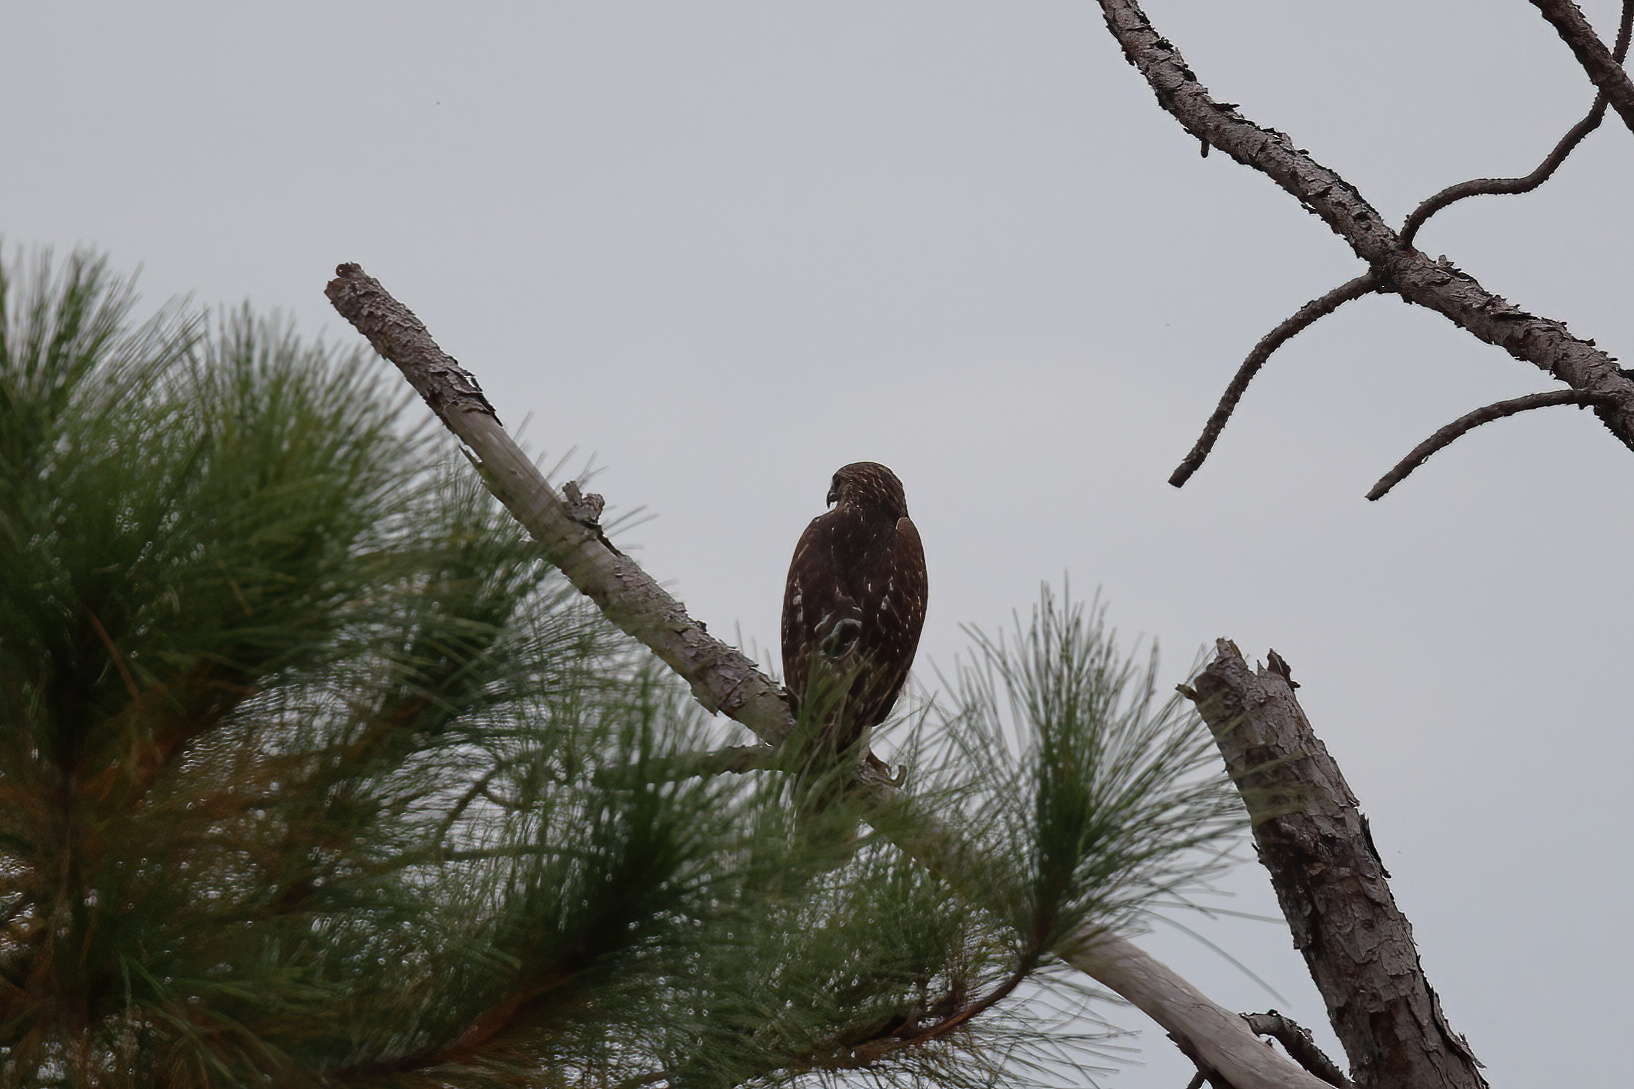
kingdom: Animalia
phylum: Chordata
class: Aves
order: Accipitriformes
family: Accipitridae
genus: Buteo
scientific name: Buteo lineatus
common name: Red-shouldered hawk
